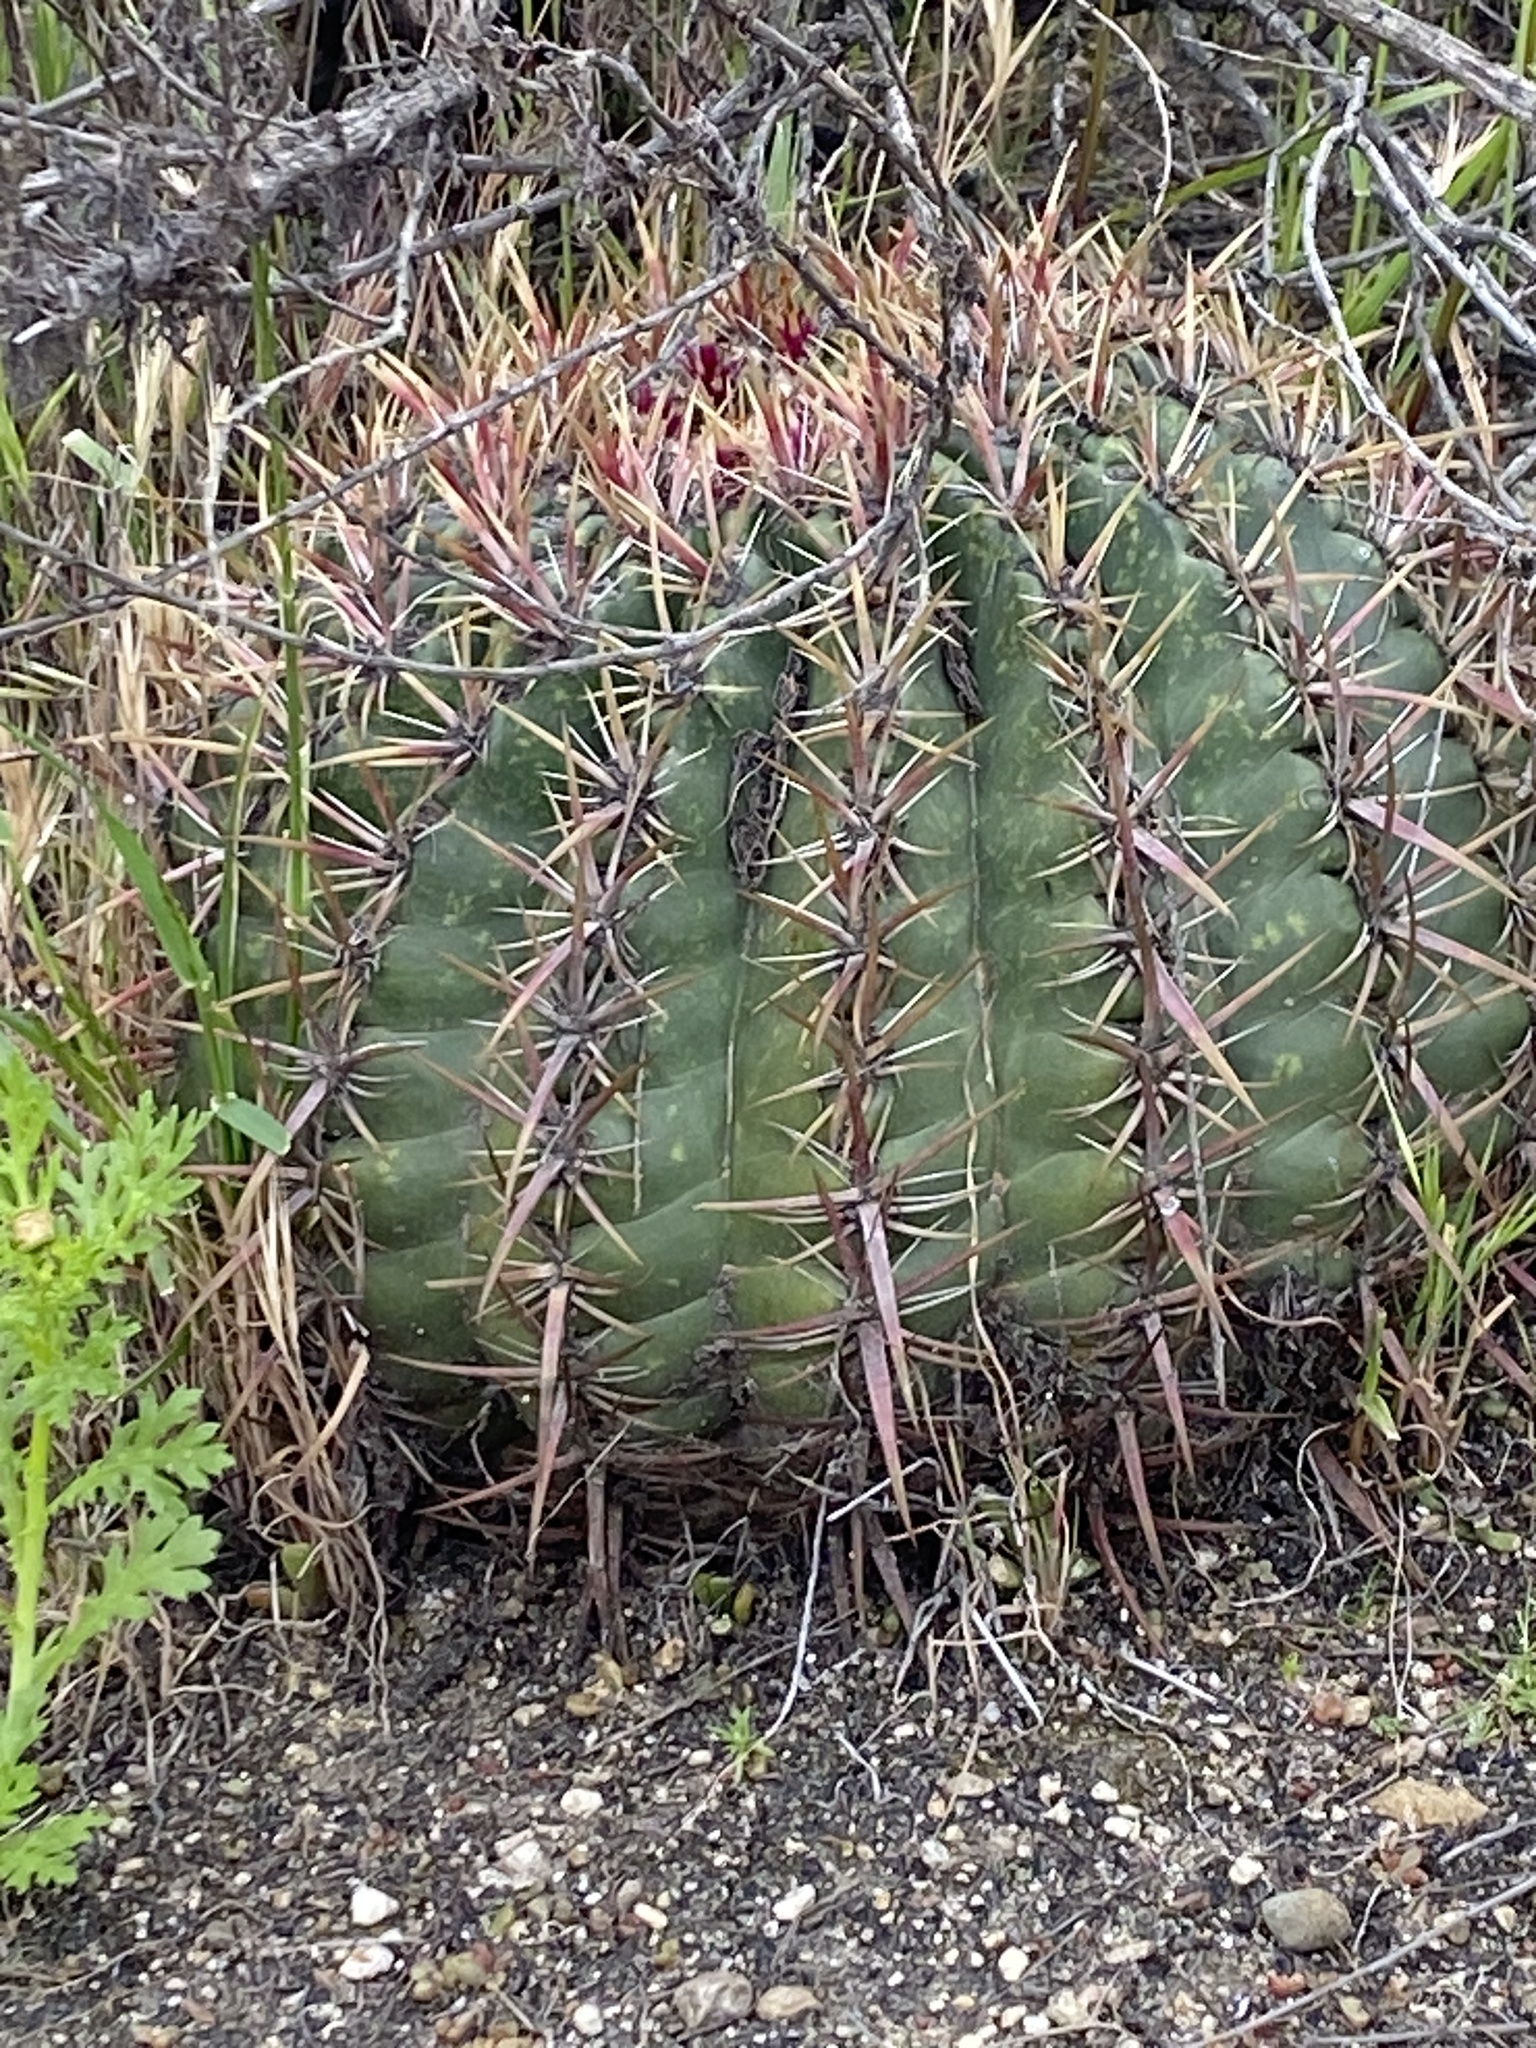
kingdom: Plantae
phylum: Tracheophyta
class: Magnoliopsida
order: Caryophyllales
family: Cactaceae
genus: Ferocactus
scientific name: Ferocactus viridescens
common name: San diego barrel cactus
